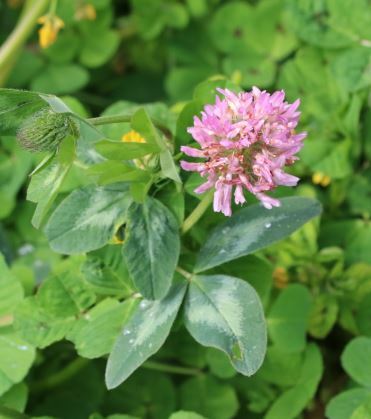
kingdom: Plantae
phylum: Tracheophyta
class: Magnoliopsida
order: Fabales
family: Fabaceae
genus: Trifolium
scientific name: Trifolium pratense
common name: Red clover
